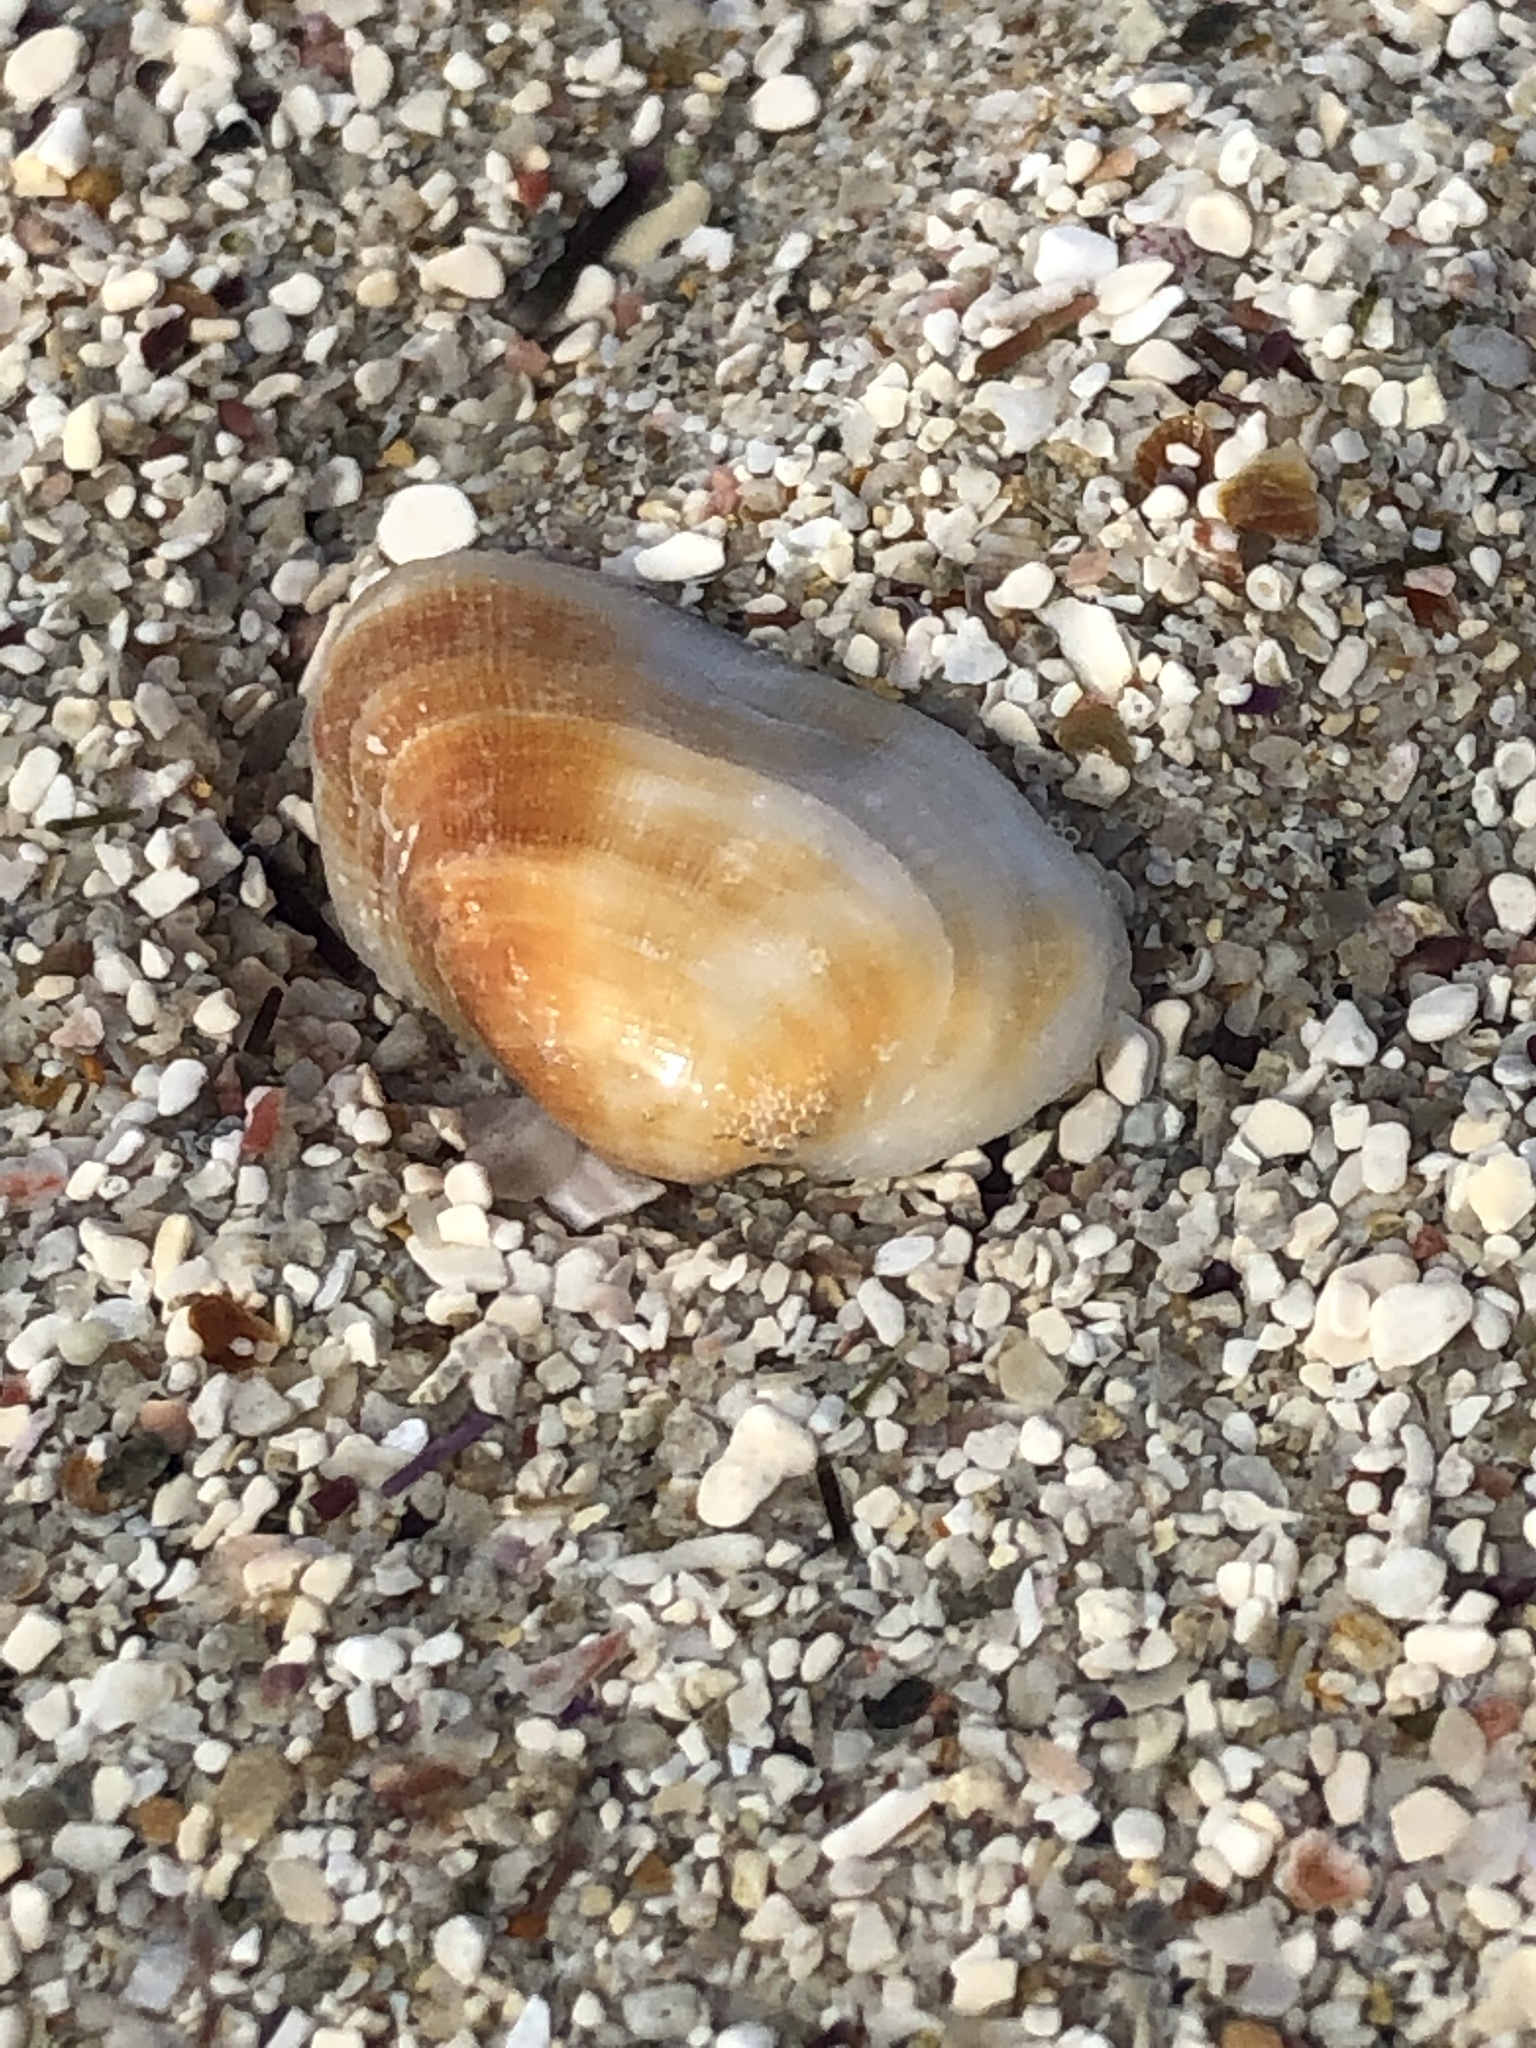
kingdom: Animalia
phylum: Mollusca
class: Bivalvia
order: Arcida
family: Arcidae
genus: Barbatia
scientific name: Barbatia stearnsii
